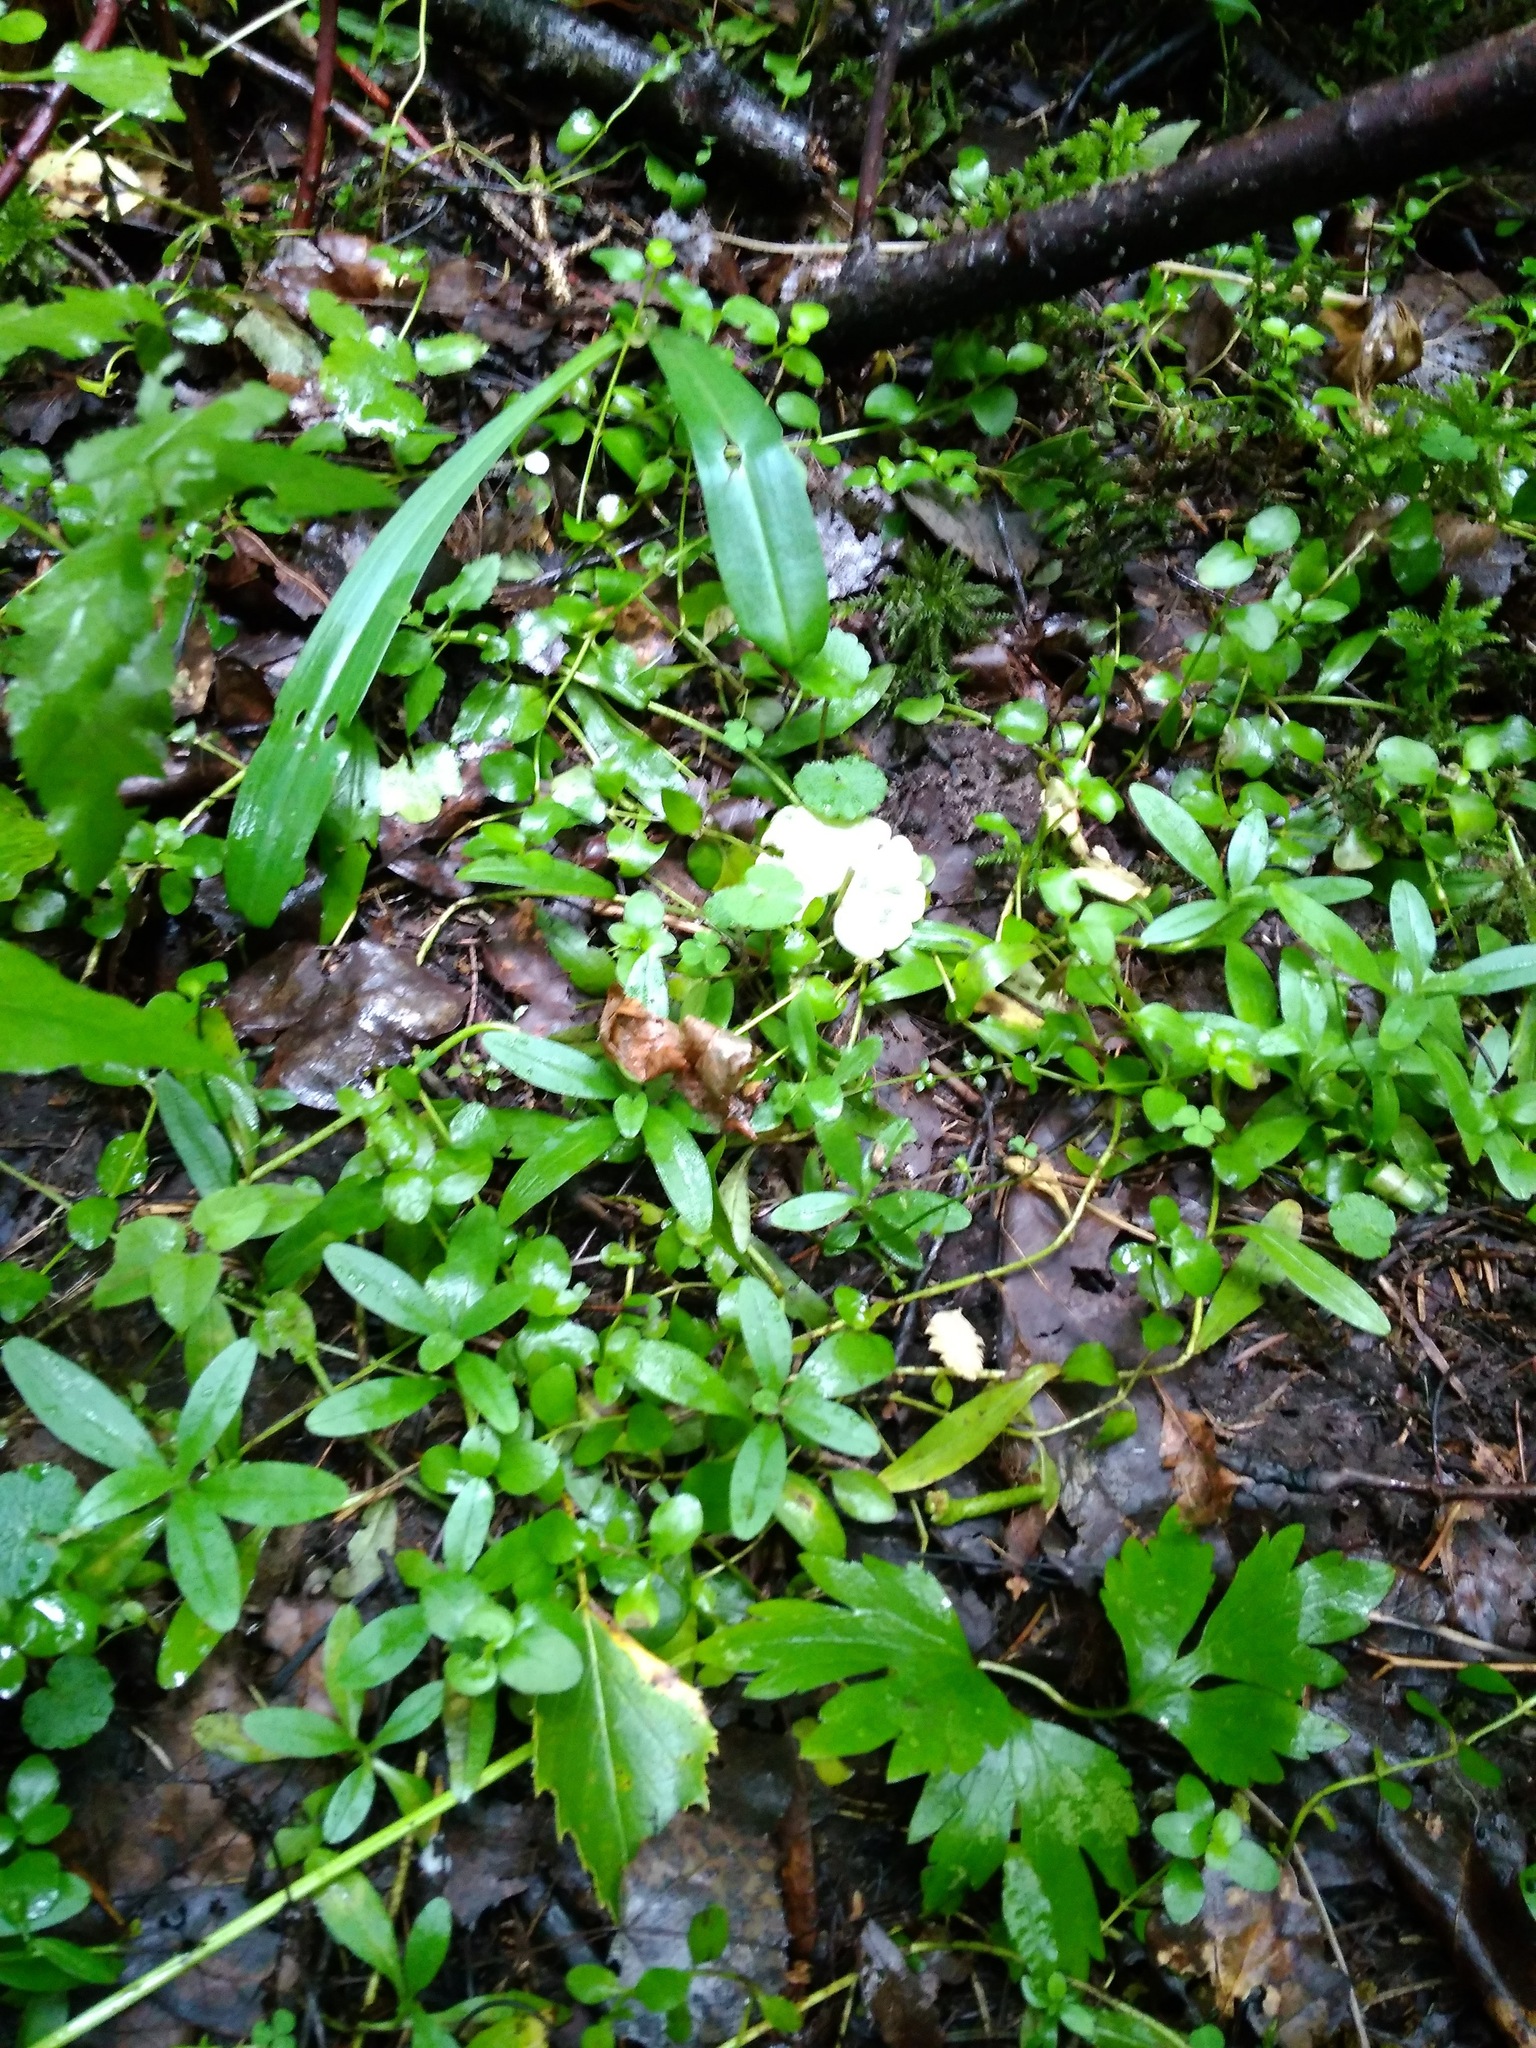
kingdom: Plantae
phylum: Tracheophyta
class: Magnoliopsida
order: Boraginales
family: Boraginaceae
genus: Myosotis
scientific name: Myosotis scorpioides
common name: Water forget-me-not
